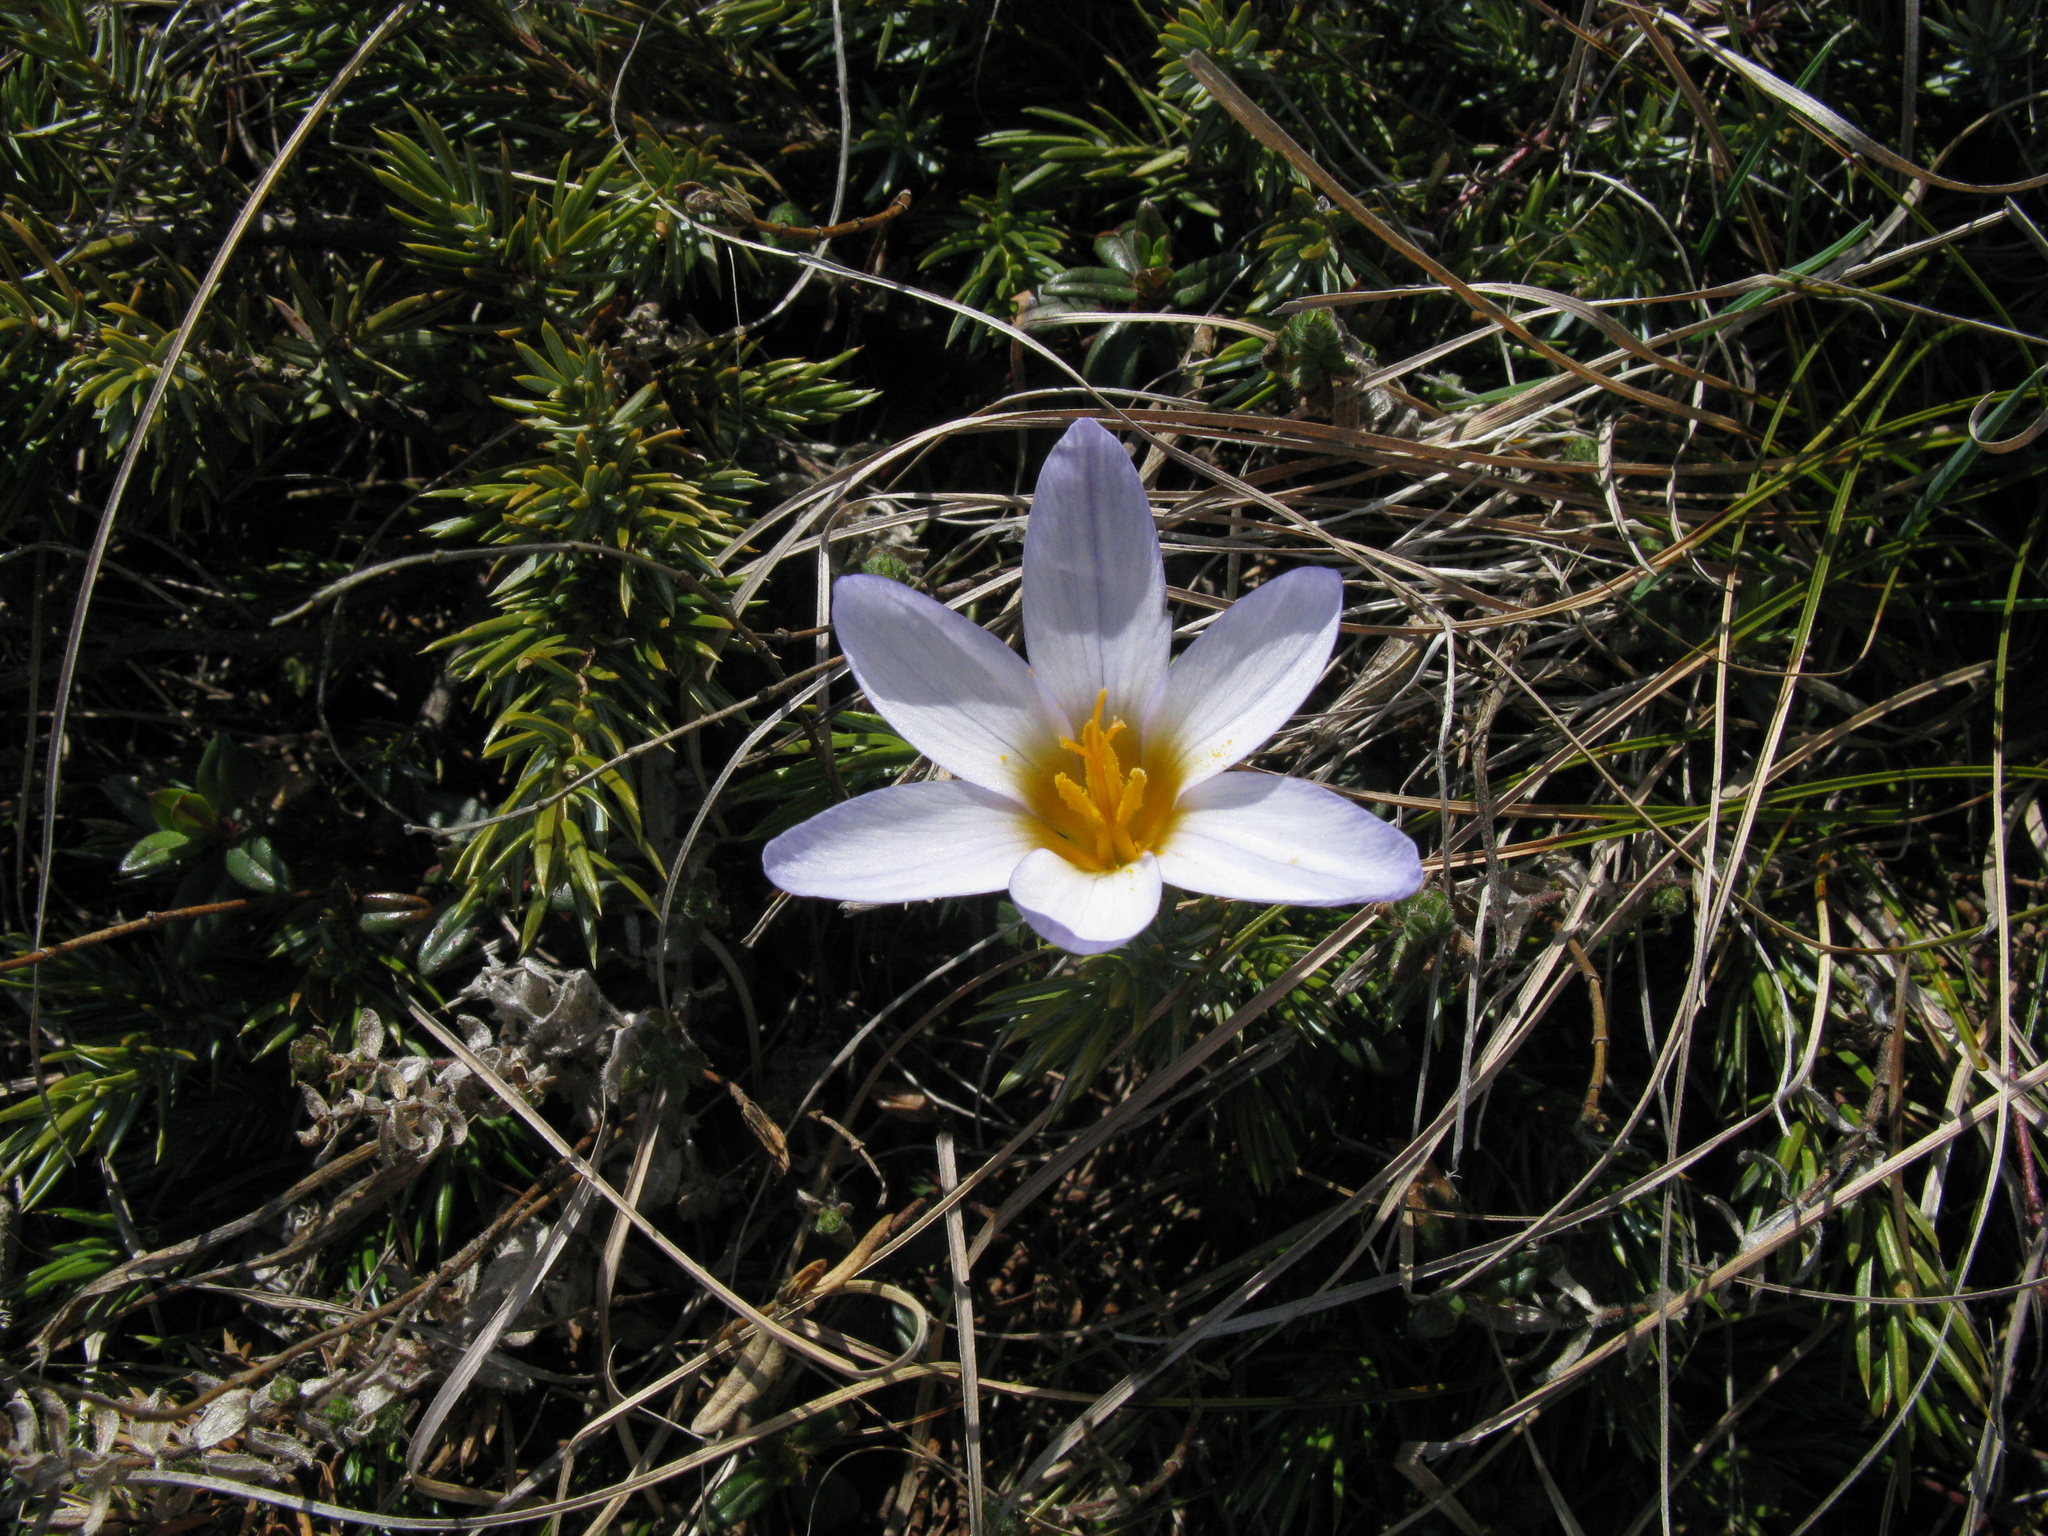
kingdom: Plantae
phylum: Tracheophyta
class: Liliopsida
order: Asparagales
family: Iridaceae
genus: Crocus
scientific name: Crocus tauricus
